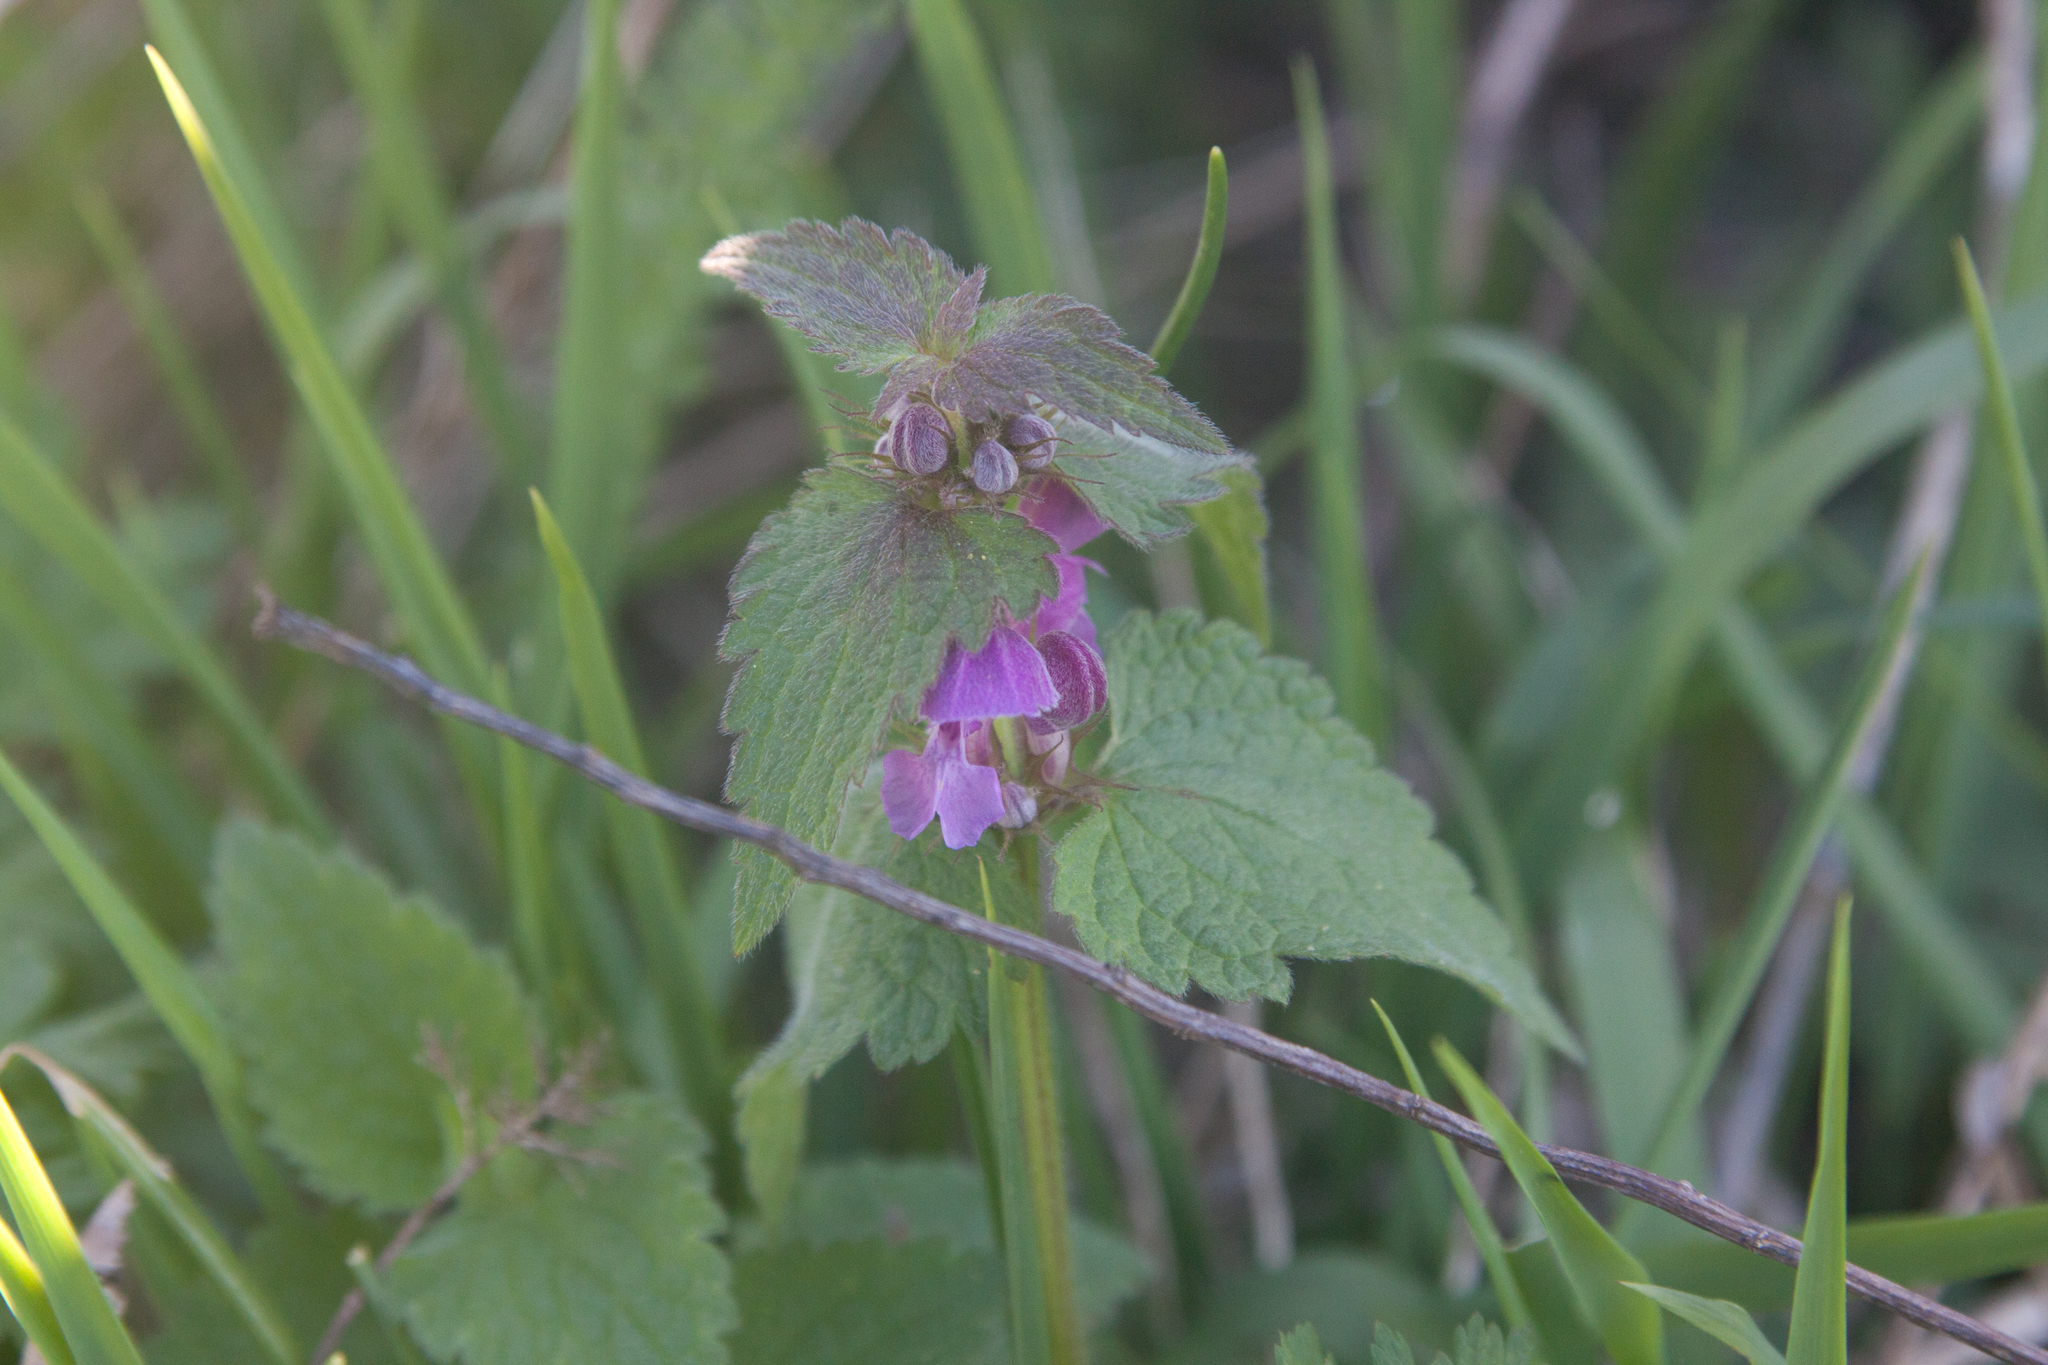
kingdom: Plantae
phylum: Tracheophyta
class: Magnoliopsida
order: Lamiales
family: Lamiaceae
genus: Lamium
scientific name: Lamium maculatum
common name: Spotted dead-nettle
